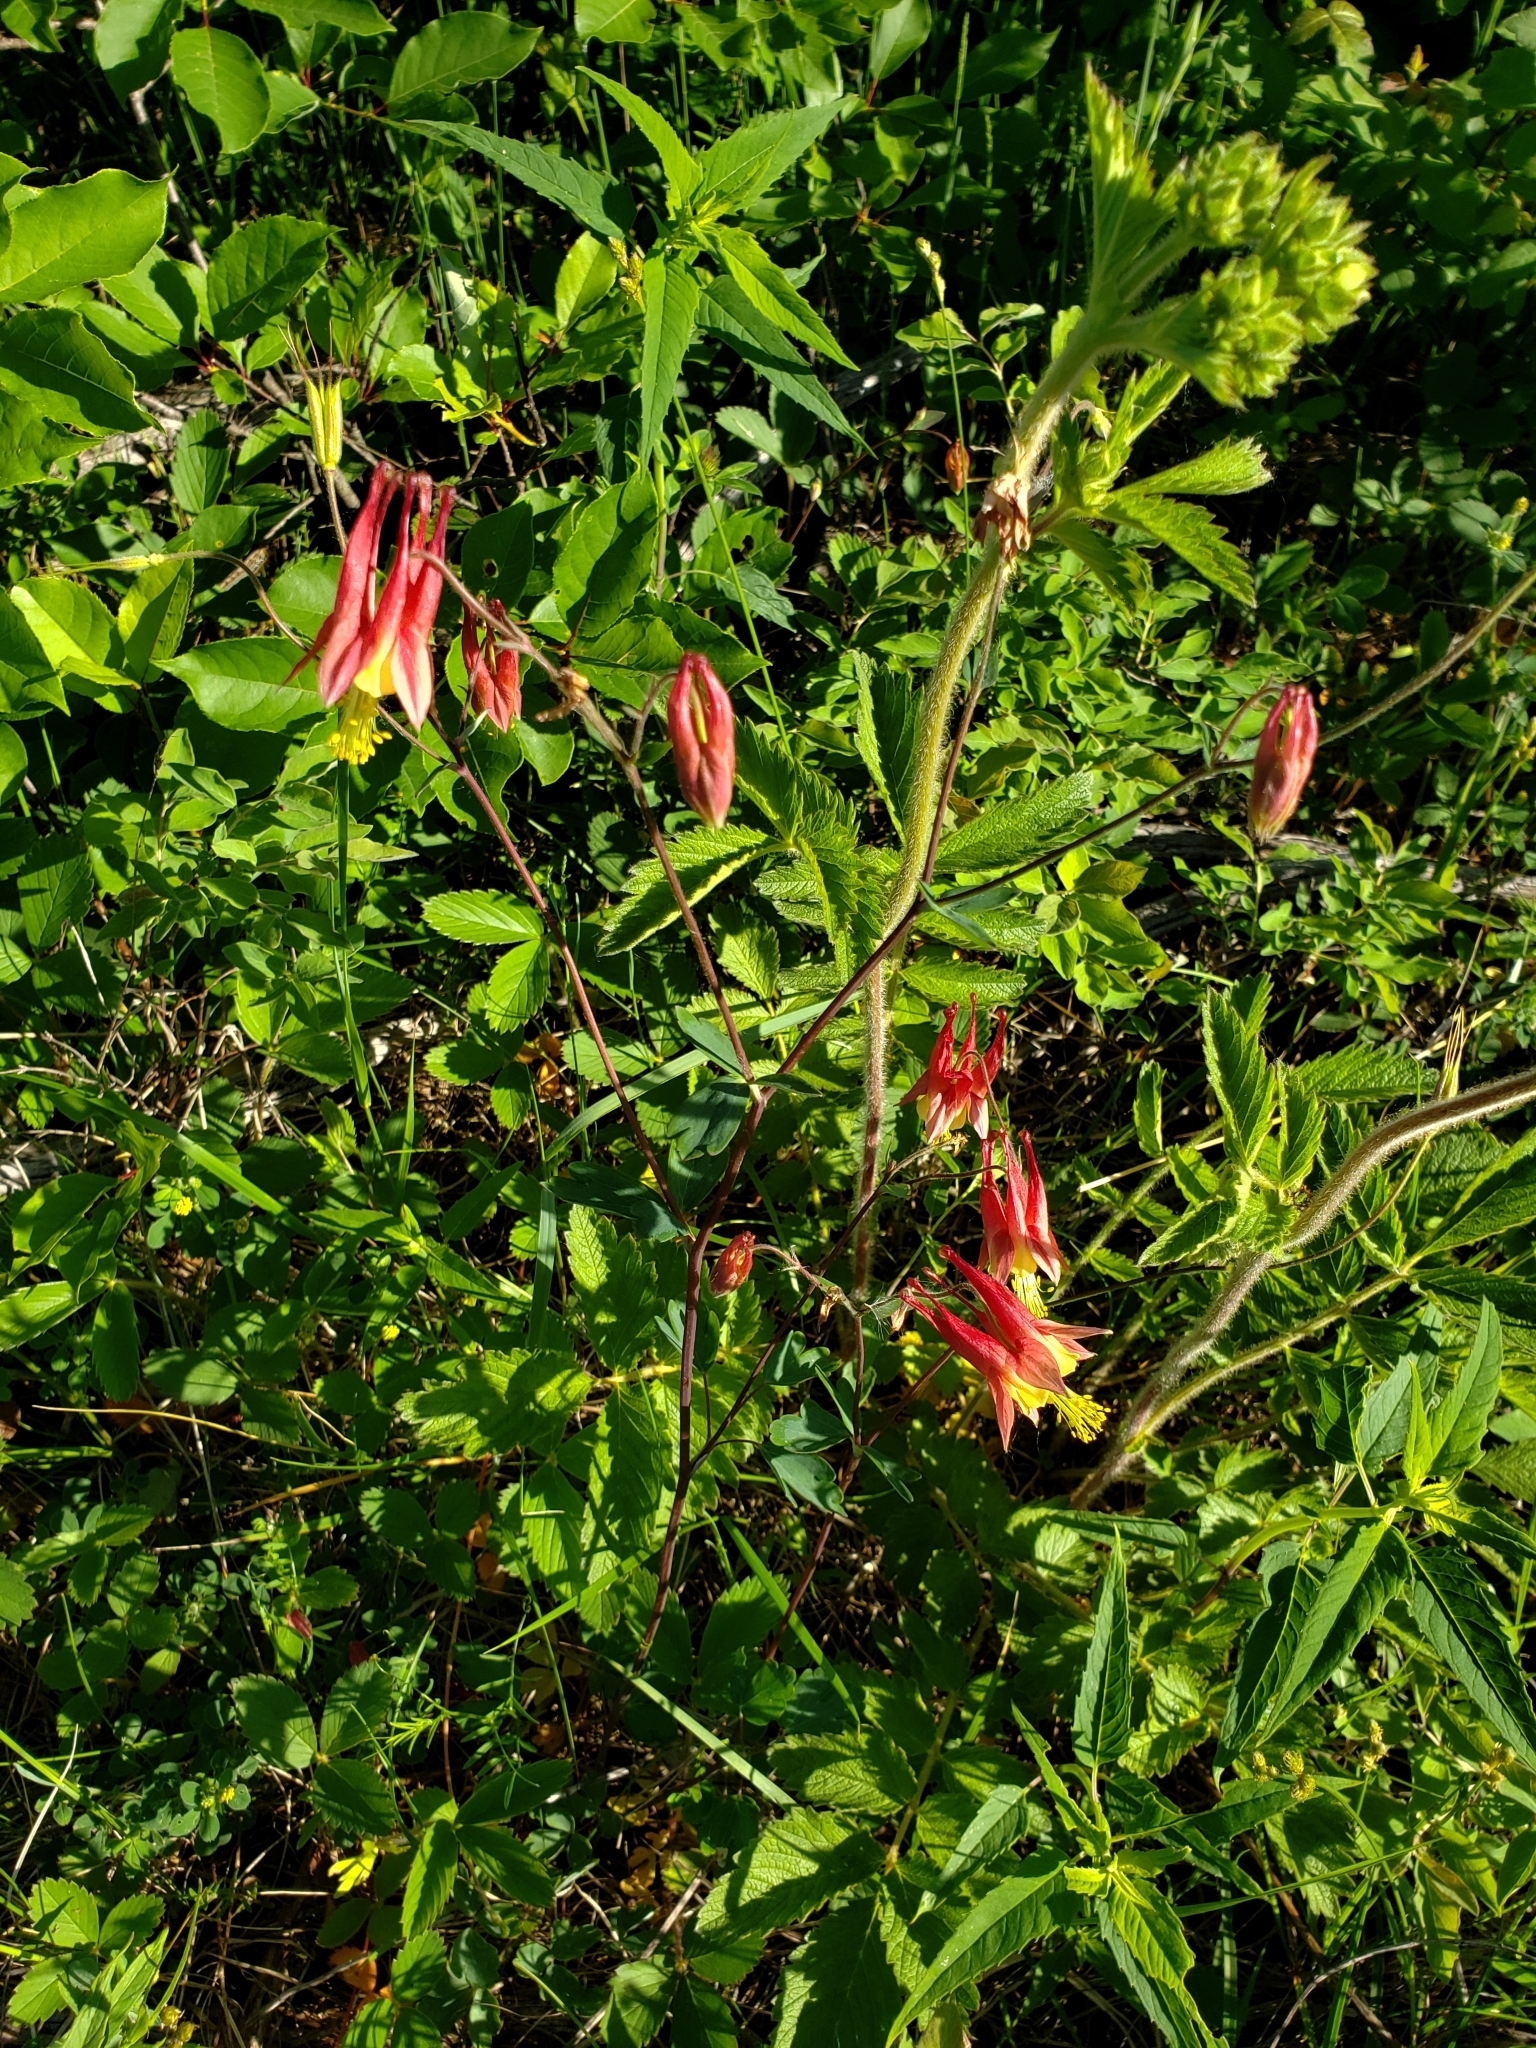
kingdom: Plantae
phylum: Tracheophyta
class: Magnoliopsida
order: Ranunculales
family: Ranunculaceae
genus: Aquilegia
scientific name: Aquilegia canadensis
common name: American columbine
